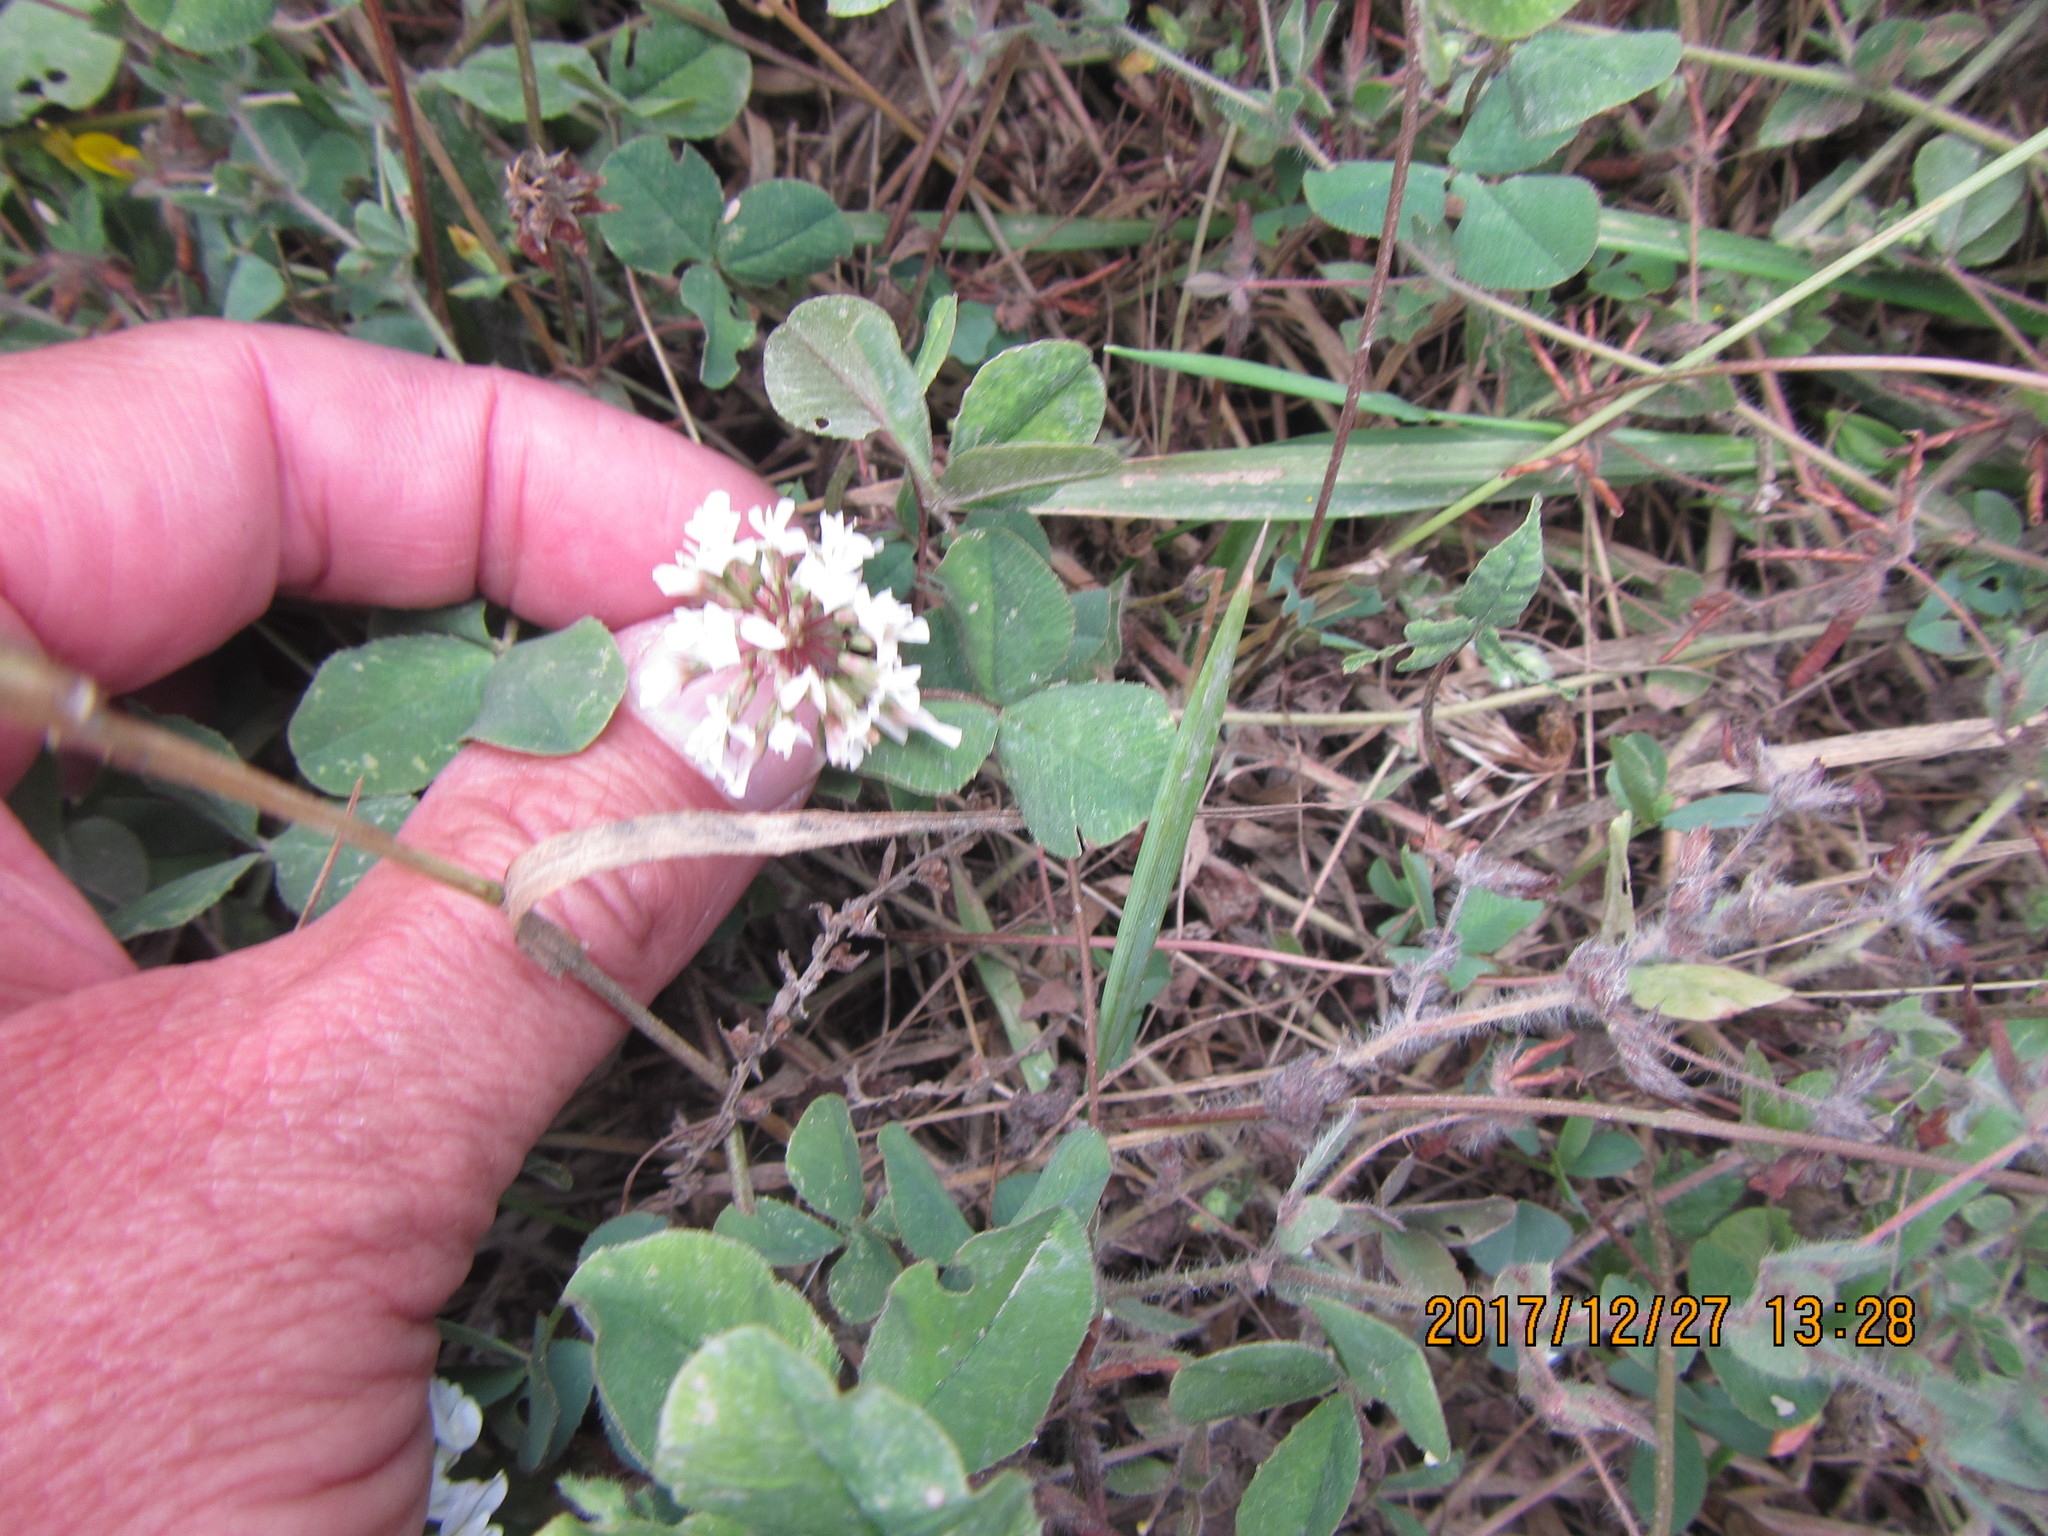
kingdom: Plantae
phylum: Tracheophyta
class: Magnoliopsida
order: Fabales
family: Fabaceae
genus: Trifolium
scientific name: Trifolium repens
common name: White clover
